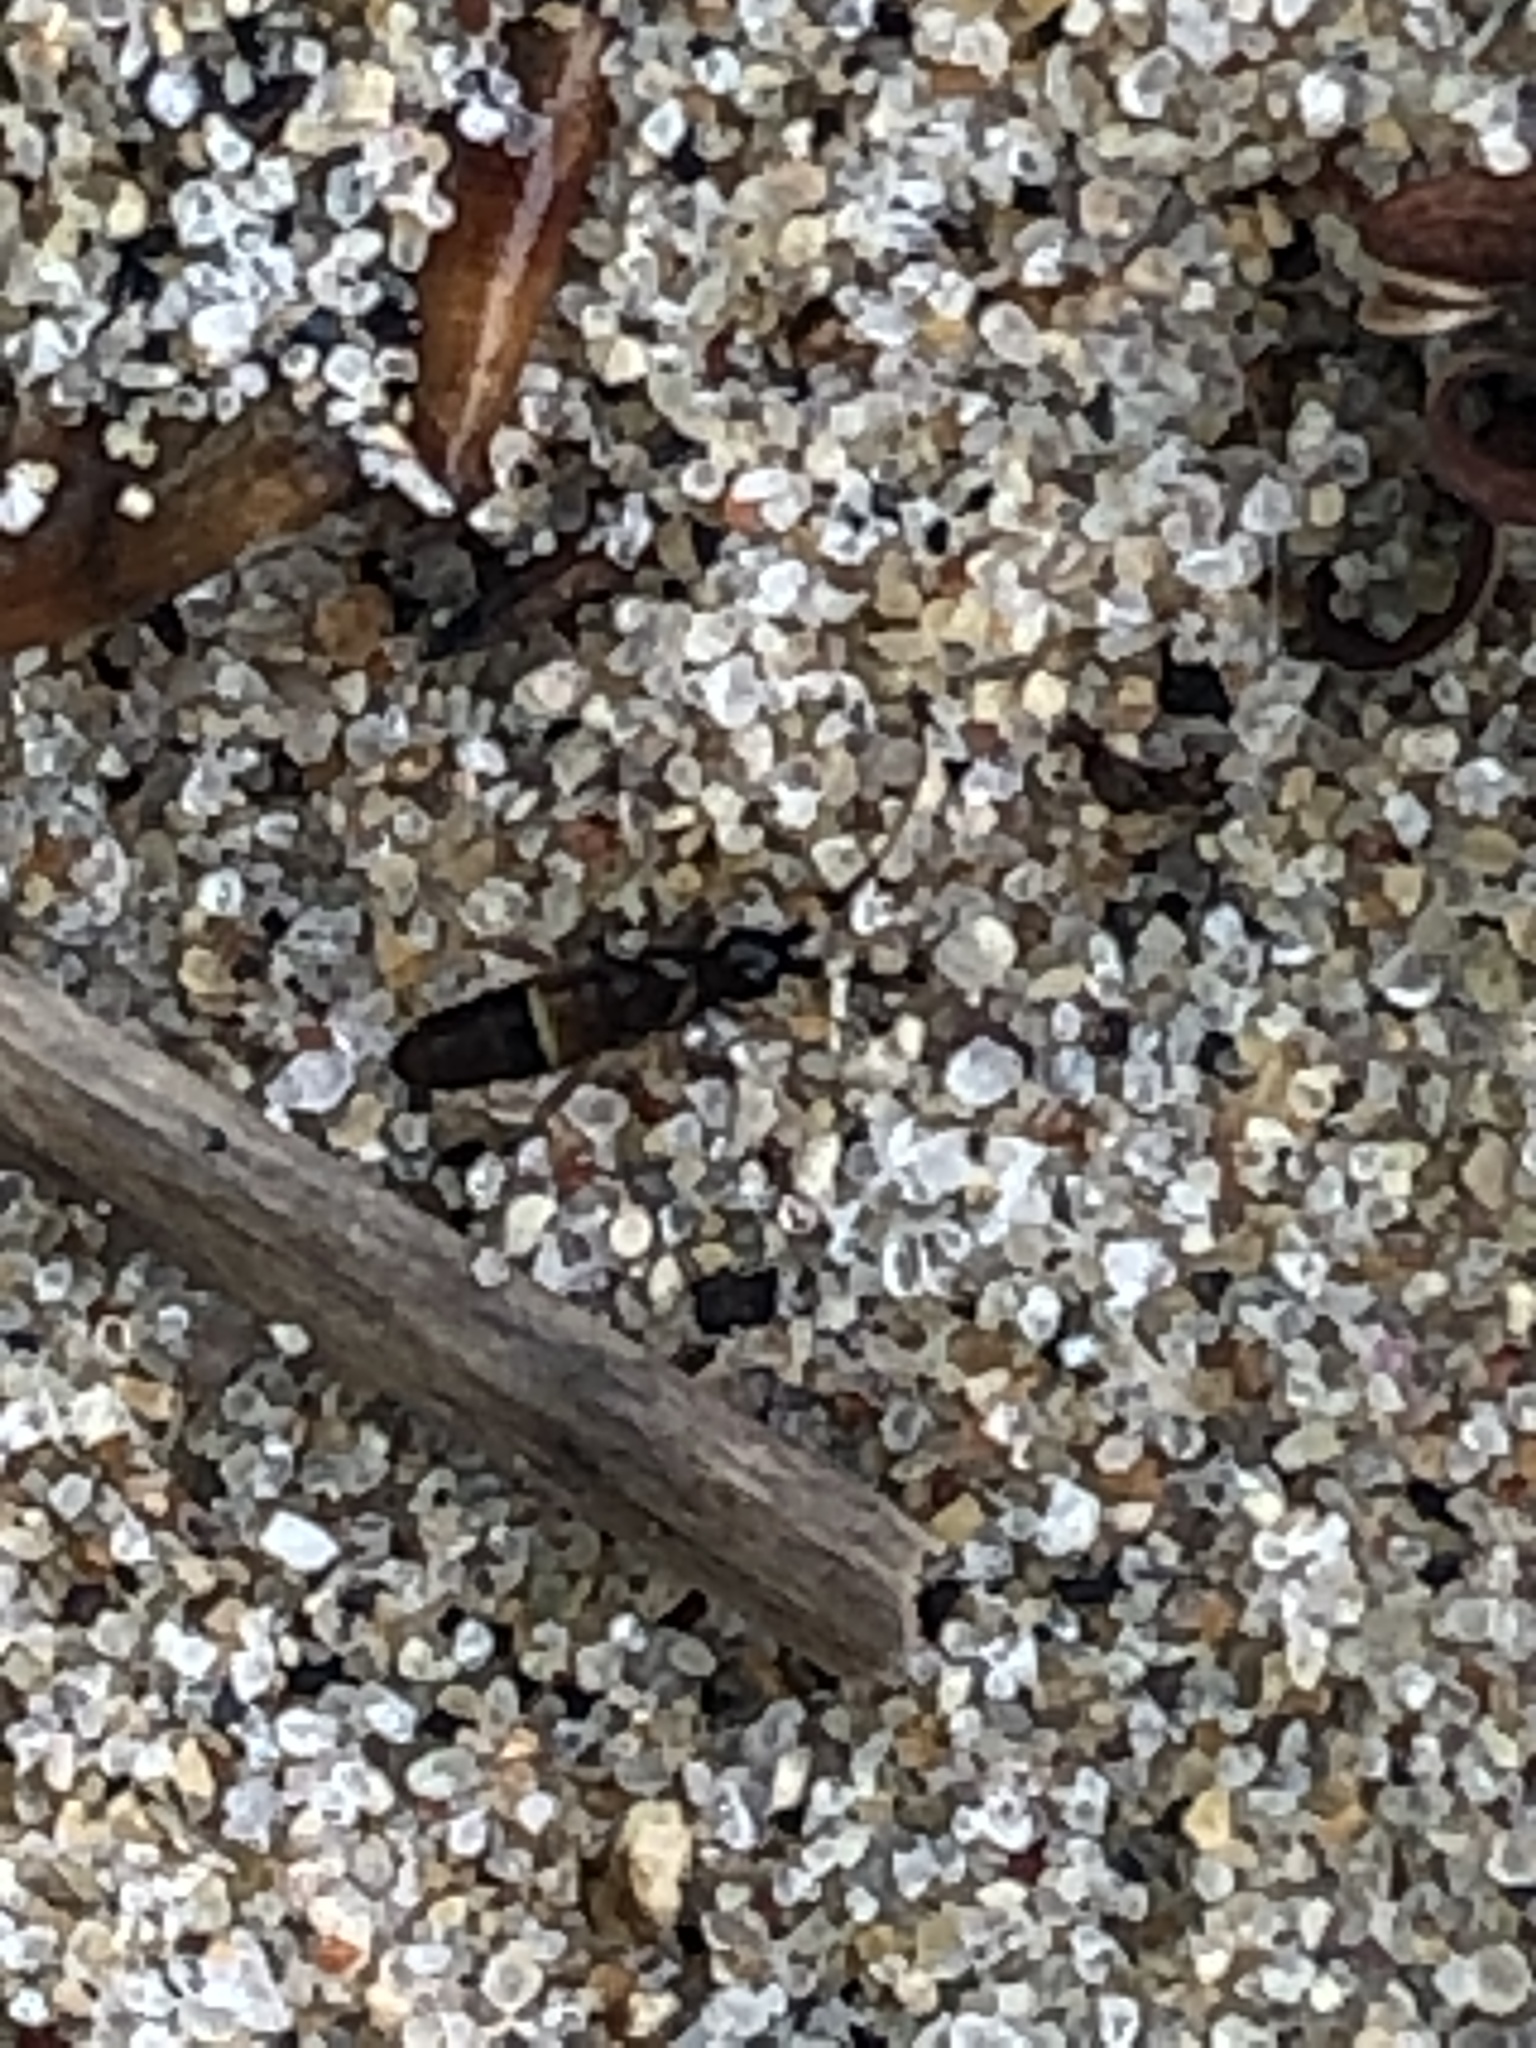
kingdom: Animalia
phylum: Arthropoda
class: Collembola
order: Entomobryomorpha
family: Orchesellidae
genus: Orchesella
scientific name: Orchesella cincta
